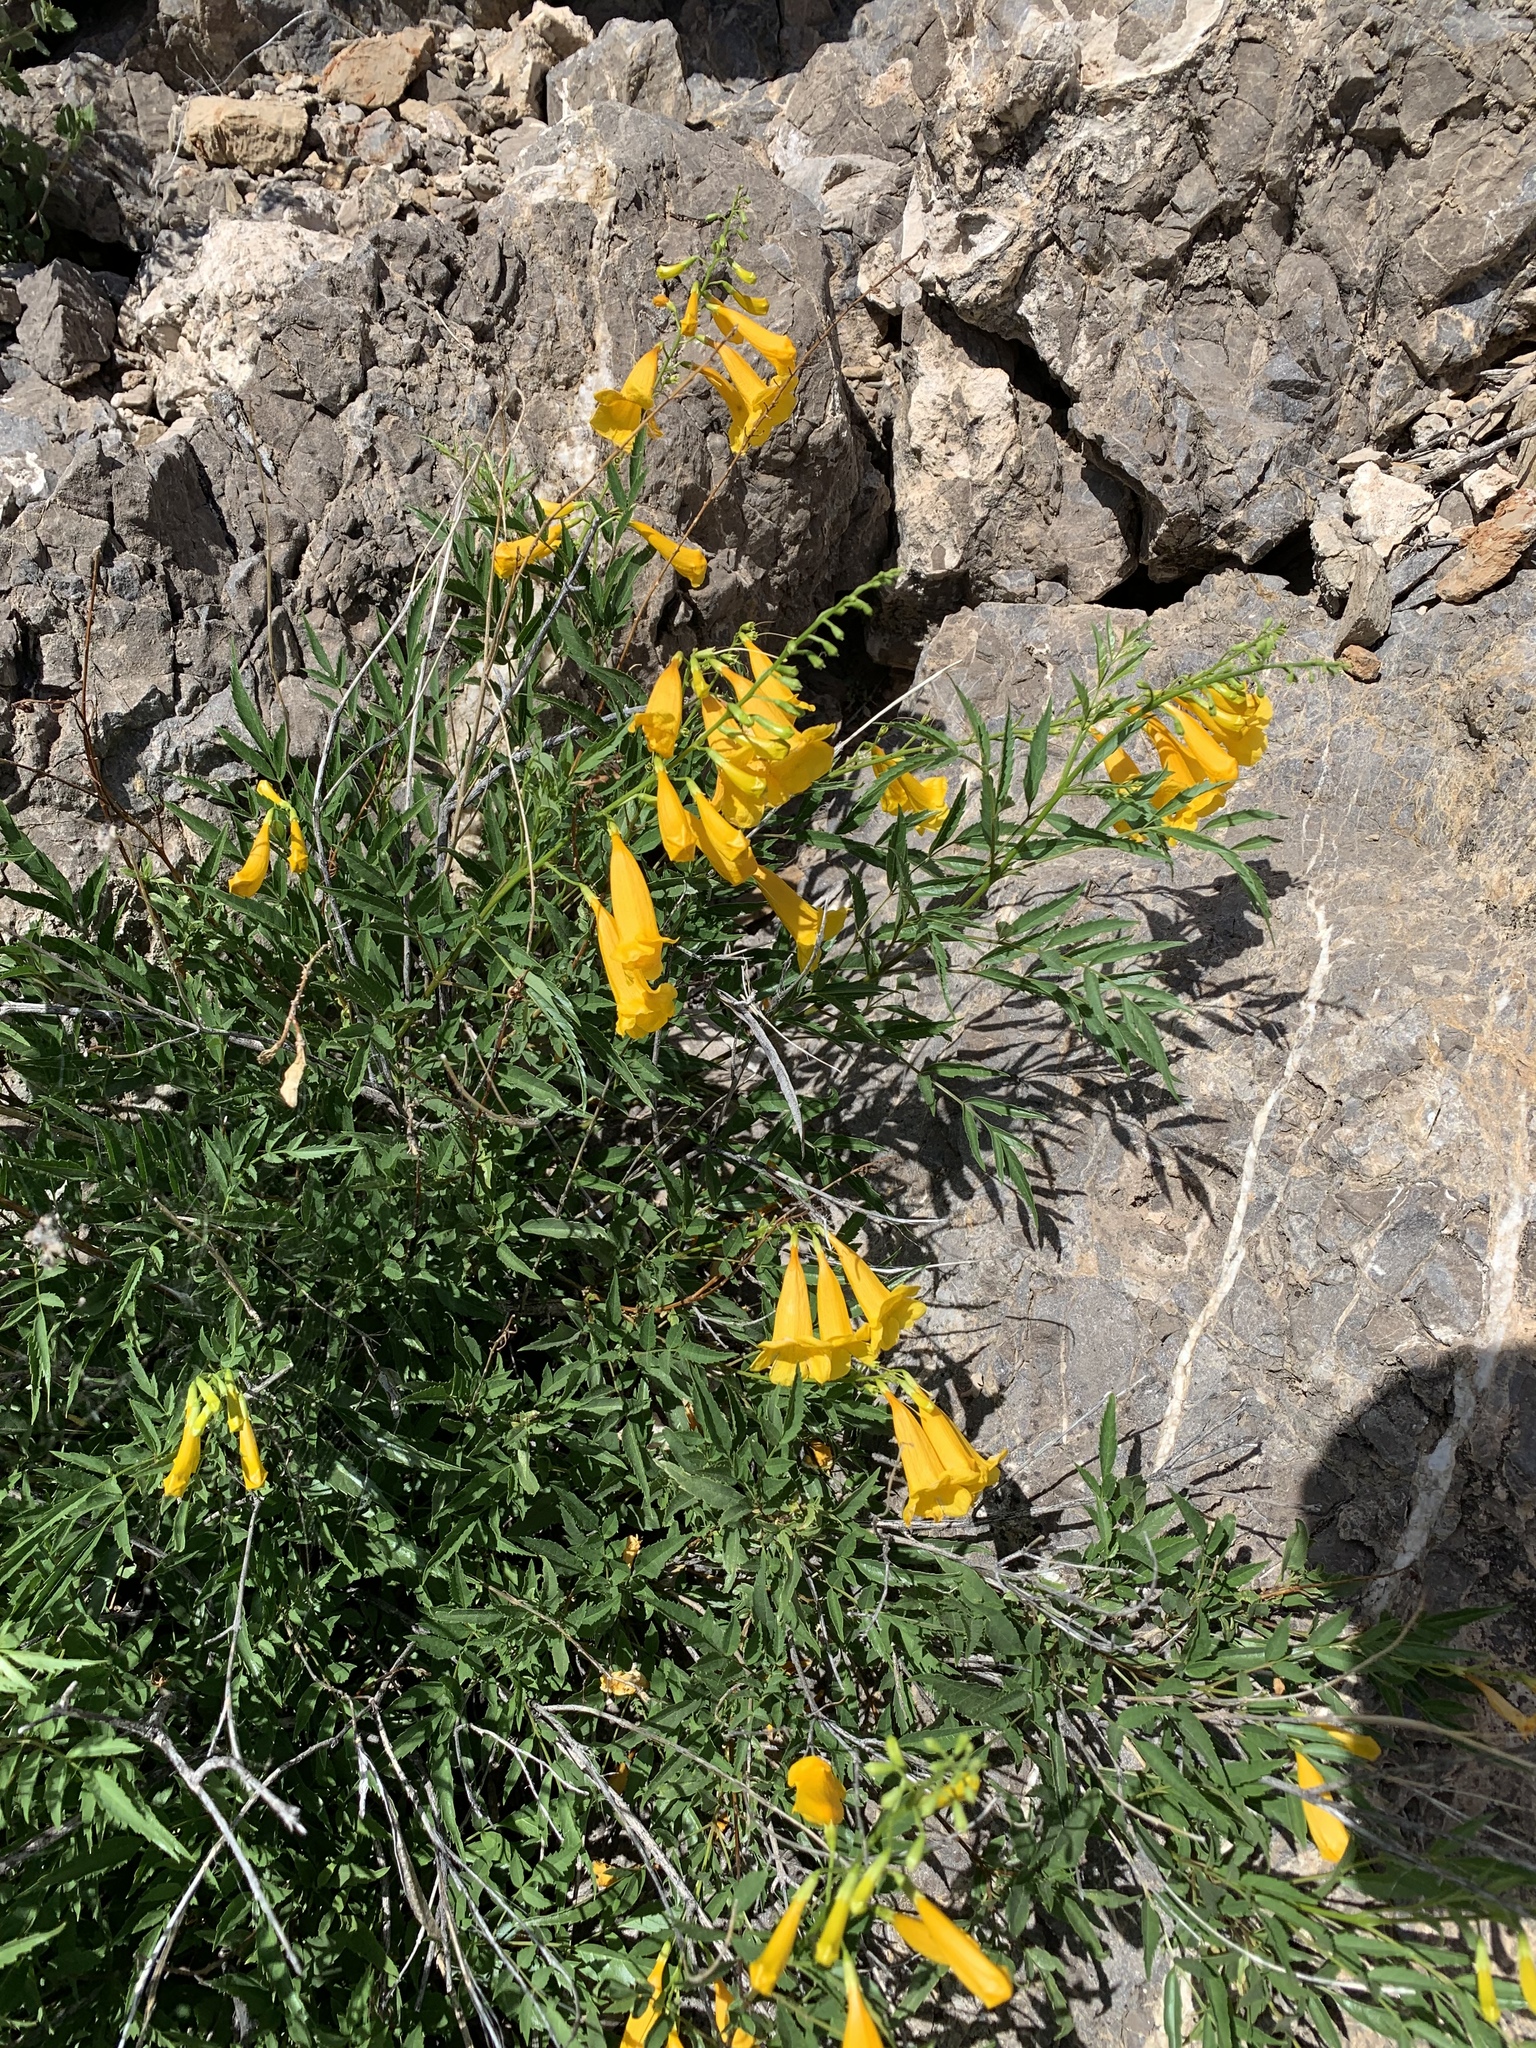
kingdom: Plantae
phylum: Tracheophyta
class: Magnoliopsida
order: Lamiales
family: Bignoniaceae
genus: Tecoma
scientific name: Tecoma stans
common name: Yellow trumpetbush
